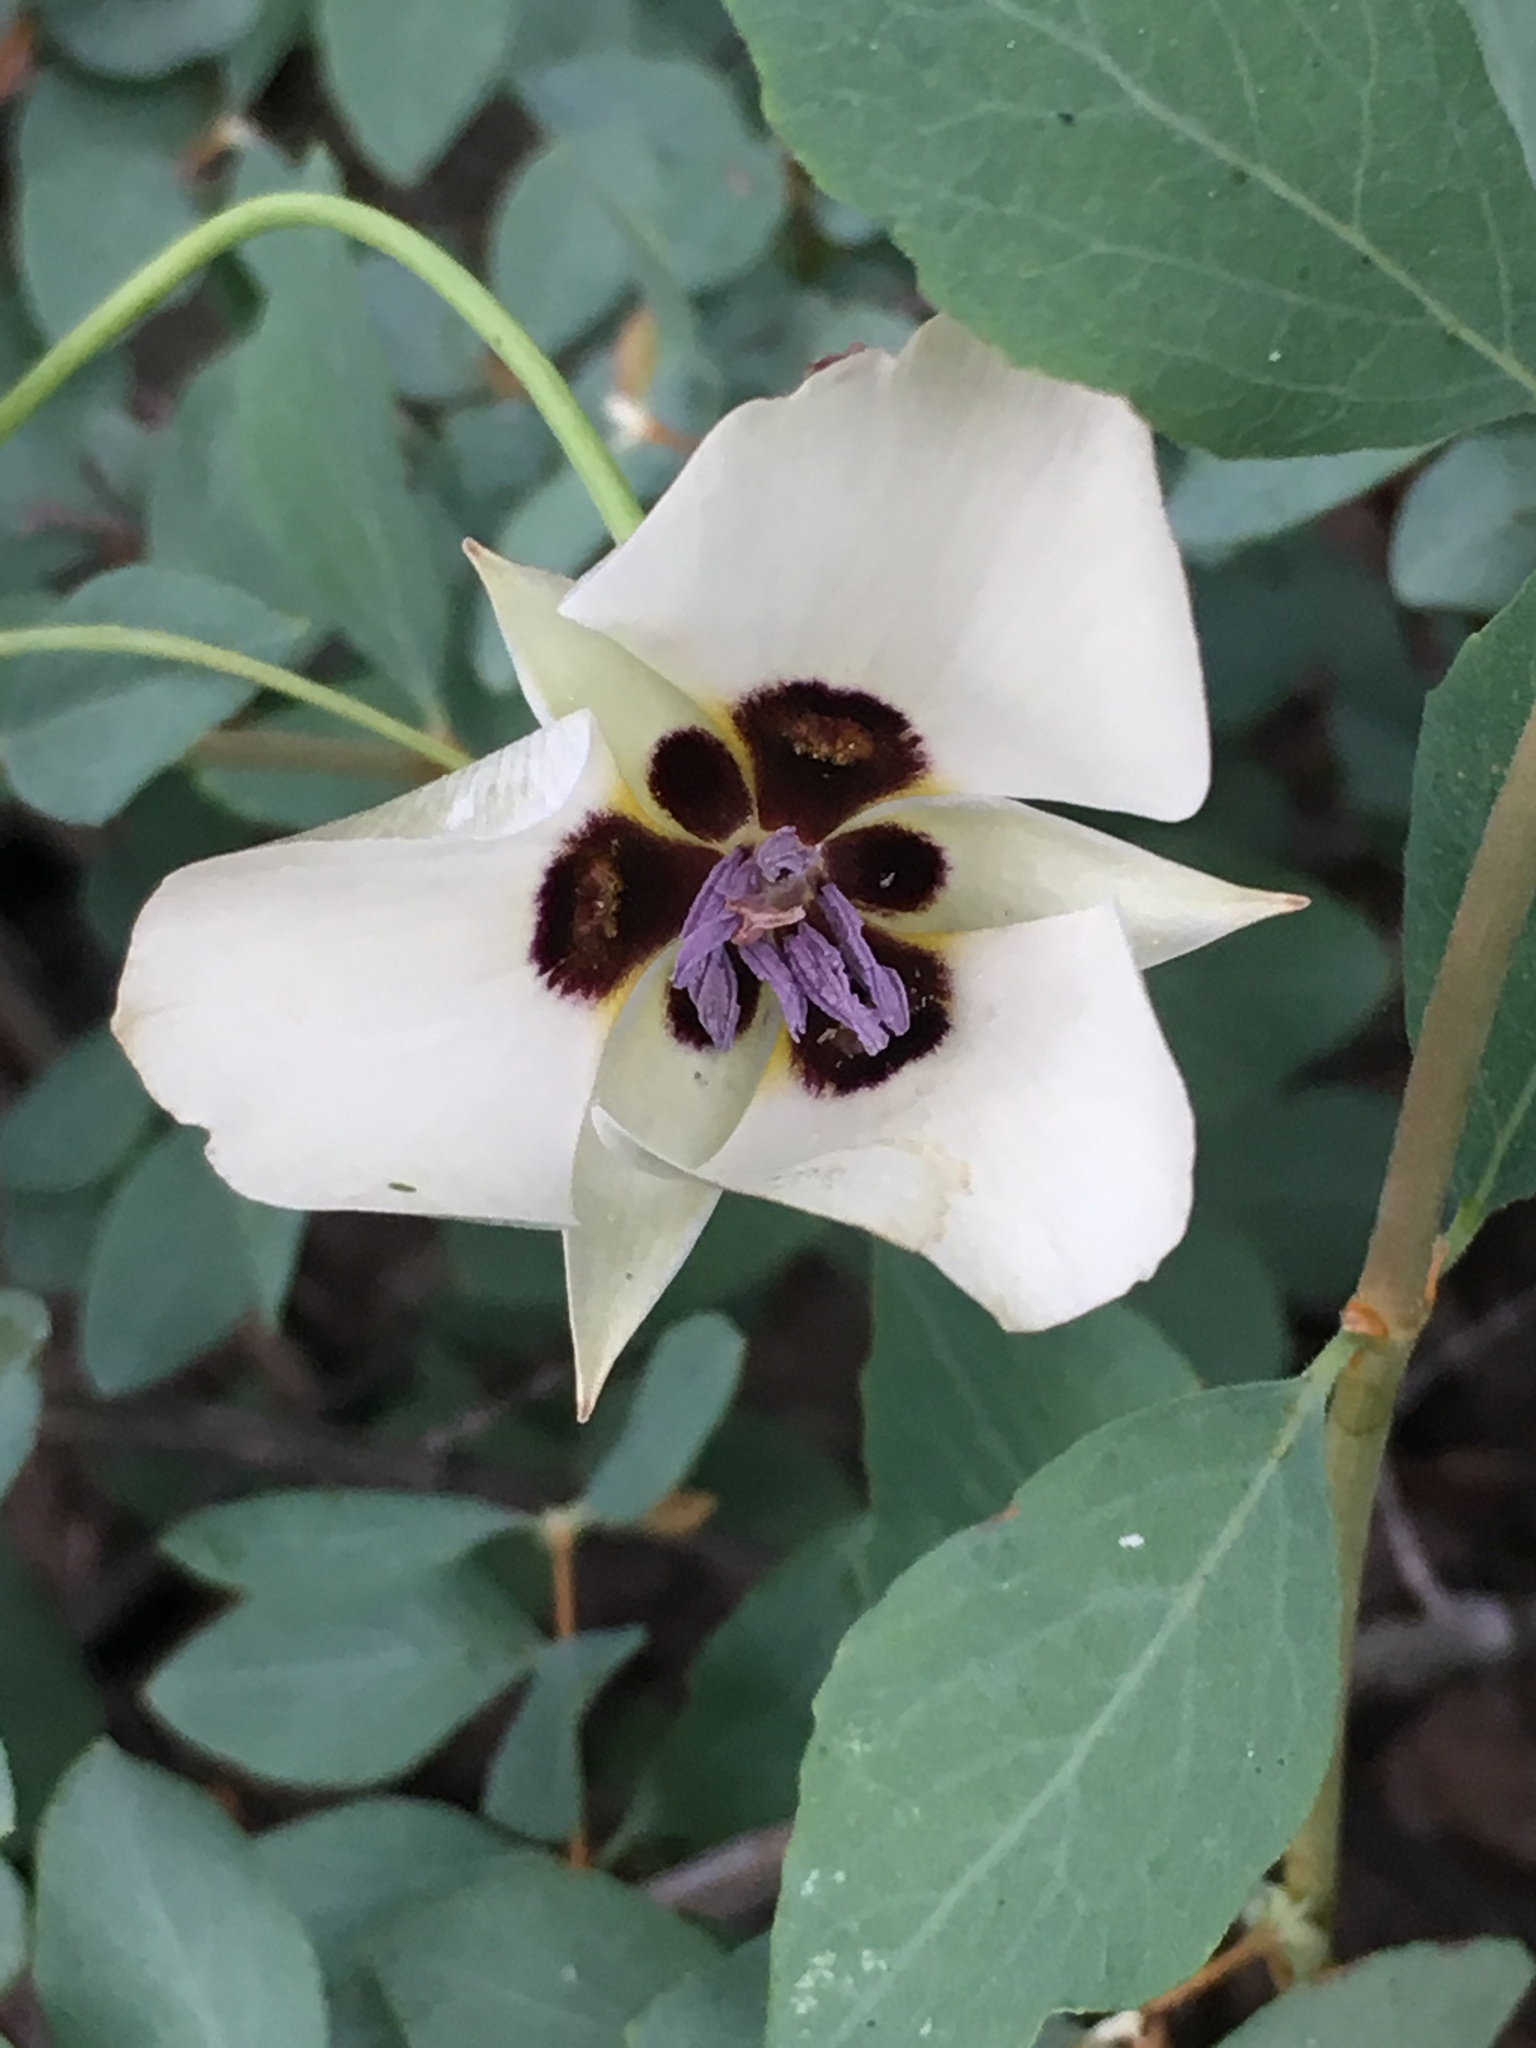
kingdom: Plantae
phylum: Tracheophyta
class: Liliopsida
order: Liliales
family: Liliaceae
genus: Calochortus
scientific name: Calochortus bruneaunis
